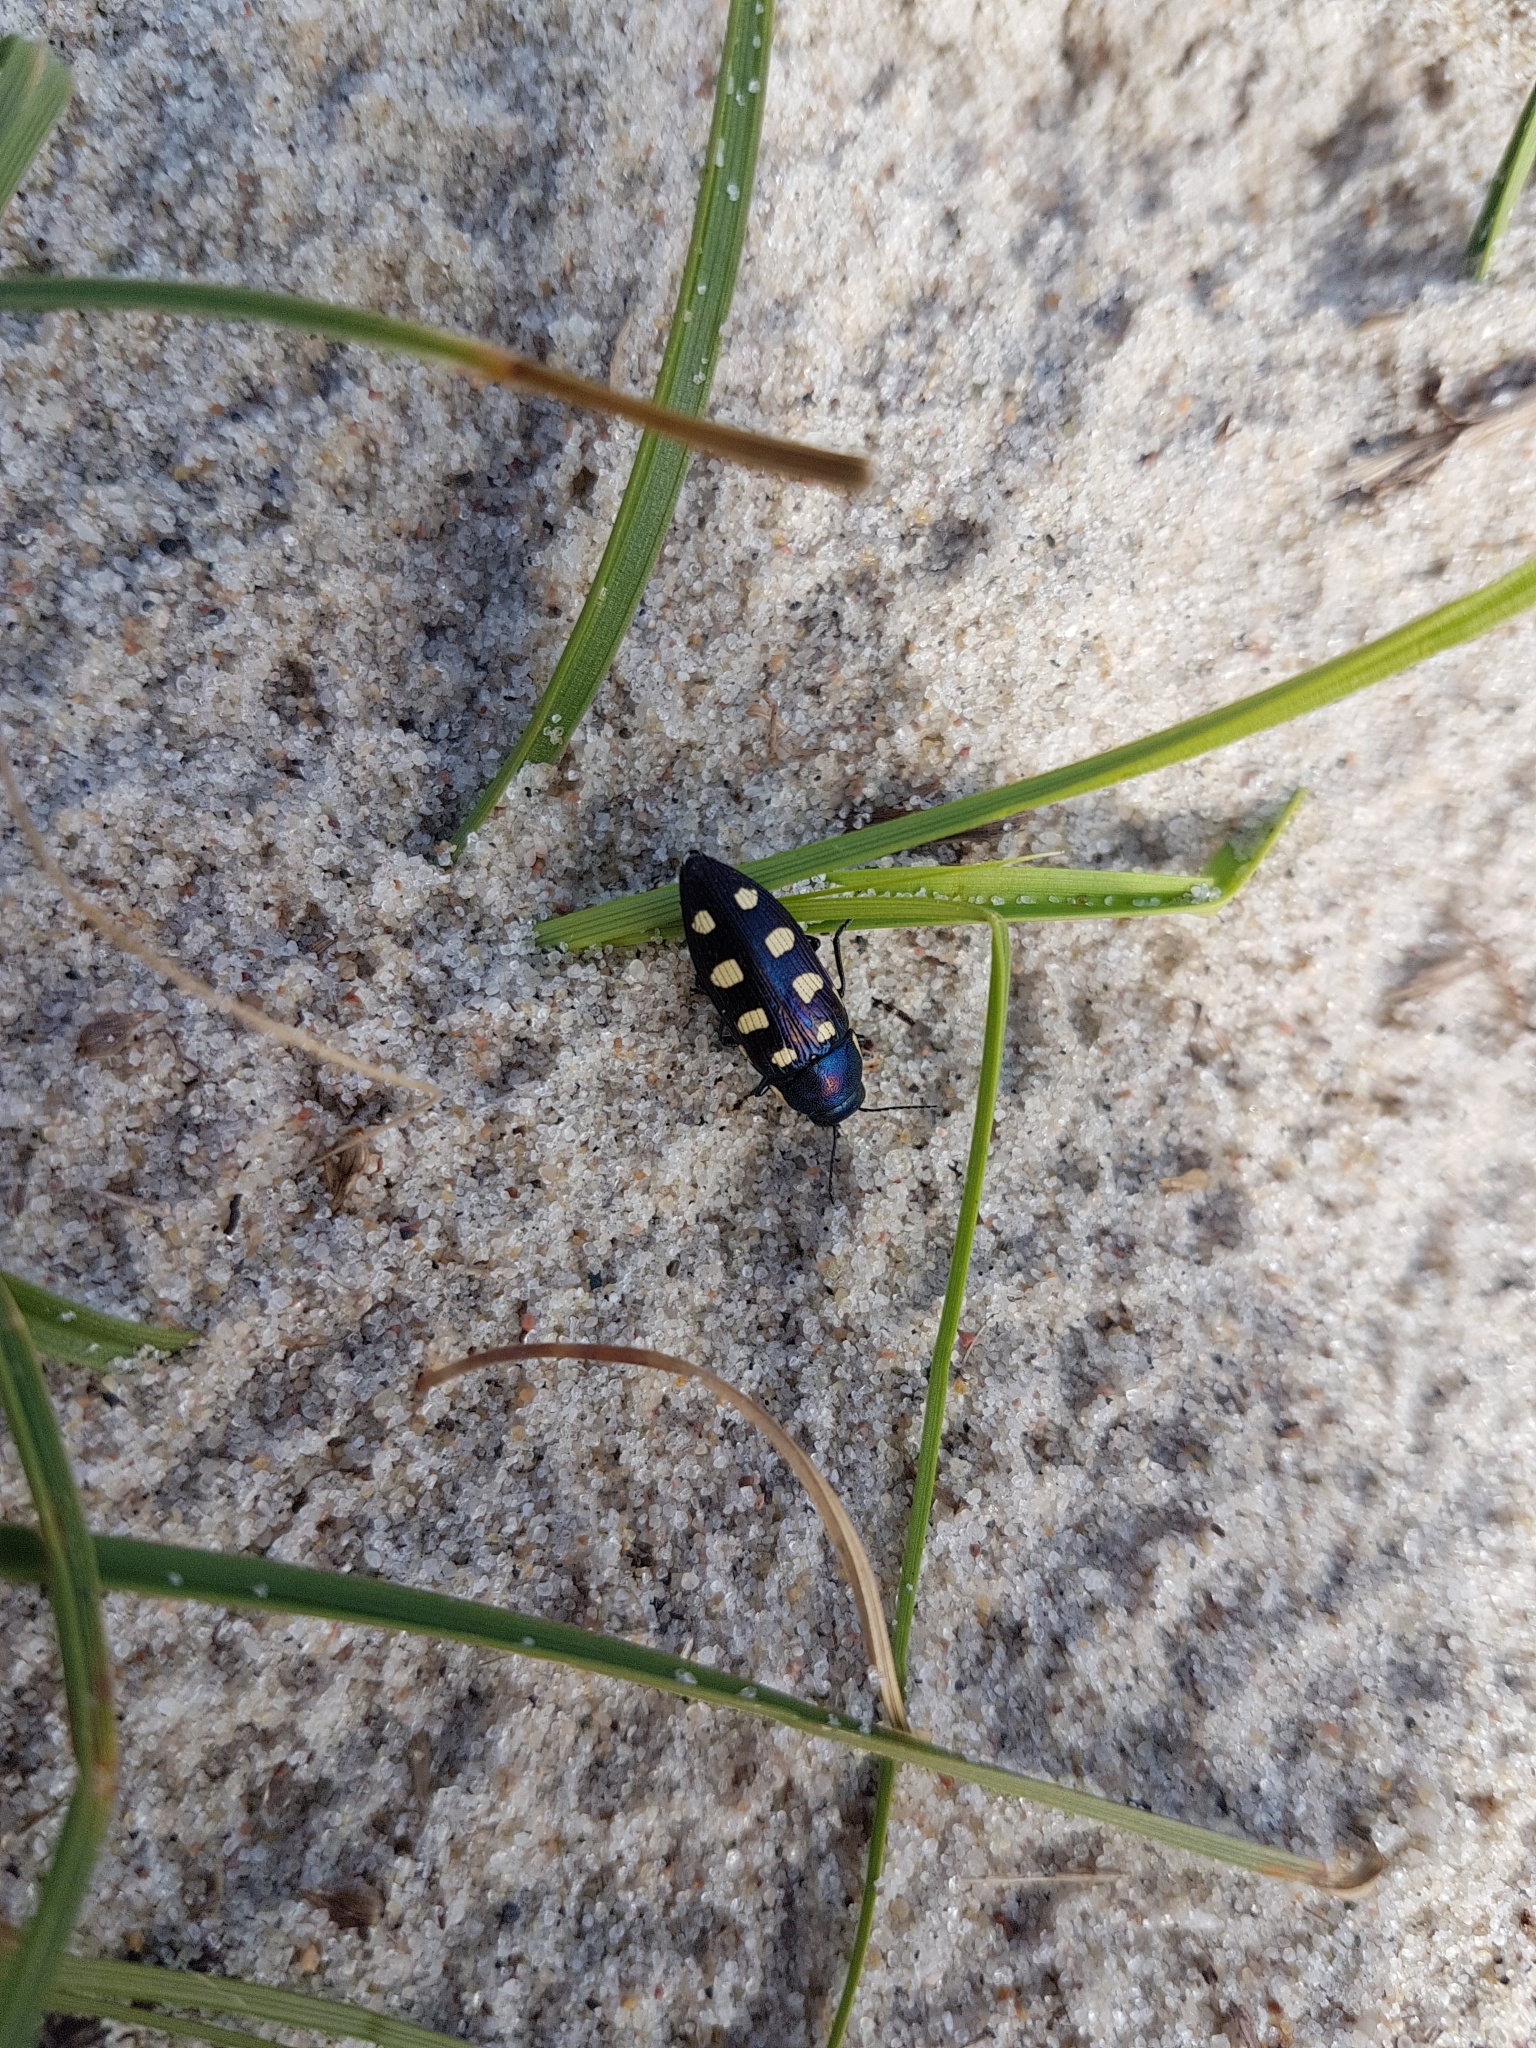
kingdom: Animalia
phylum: Arthropoda
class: Insecta
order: Coleoptera
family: Buprestidae
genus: Buprestis
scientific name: Buprestis octoguttata
